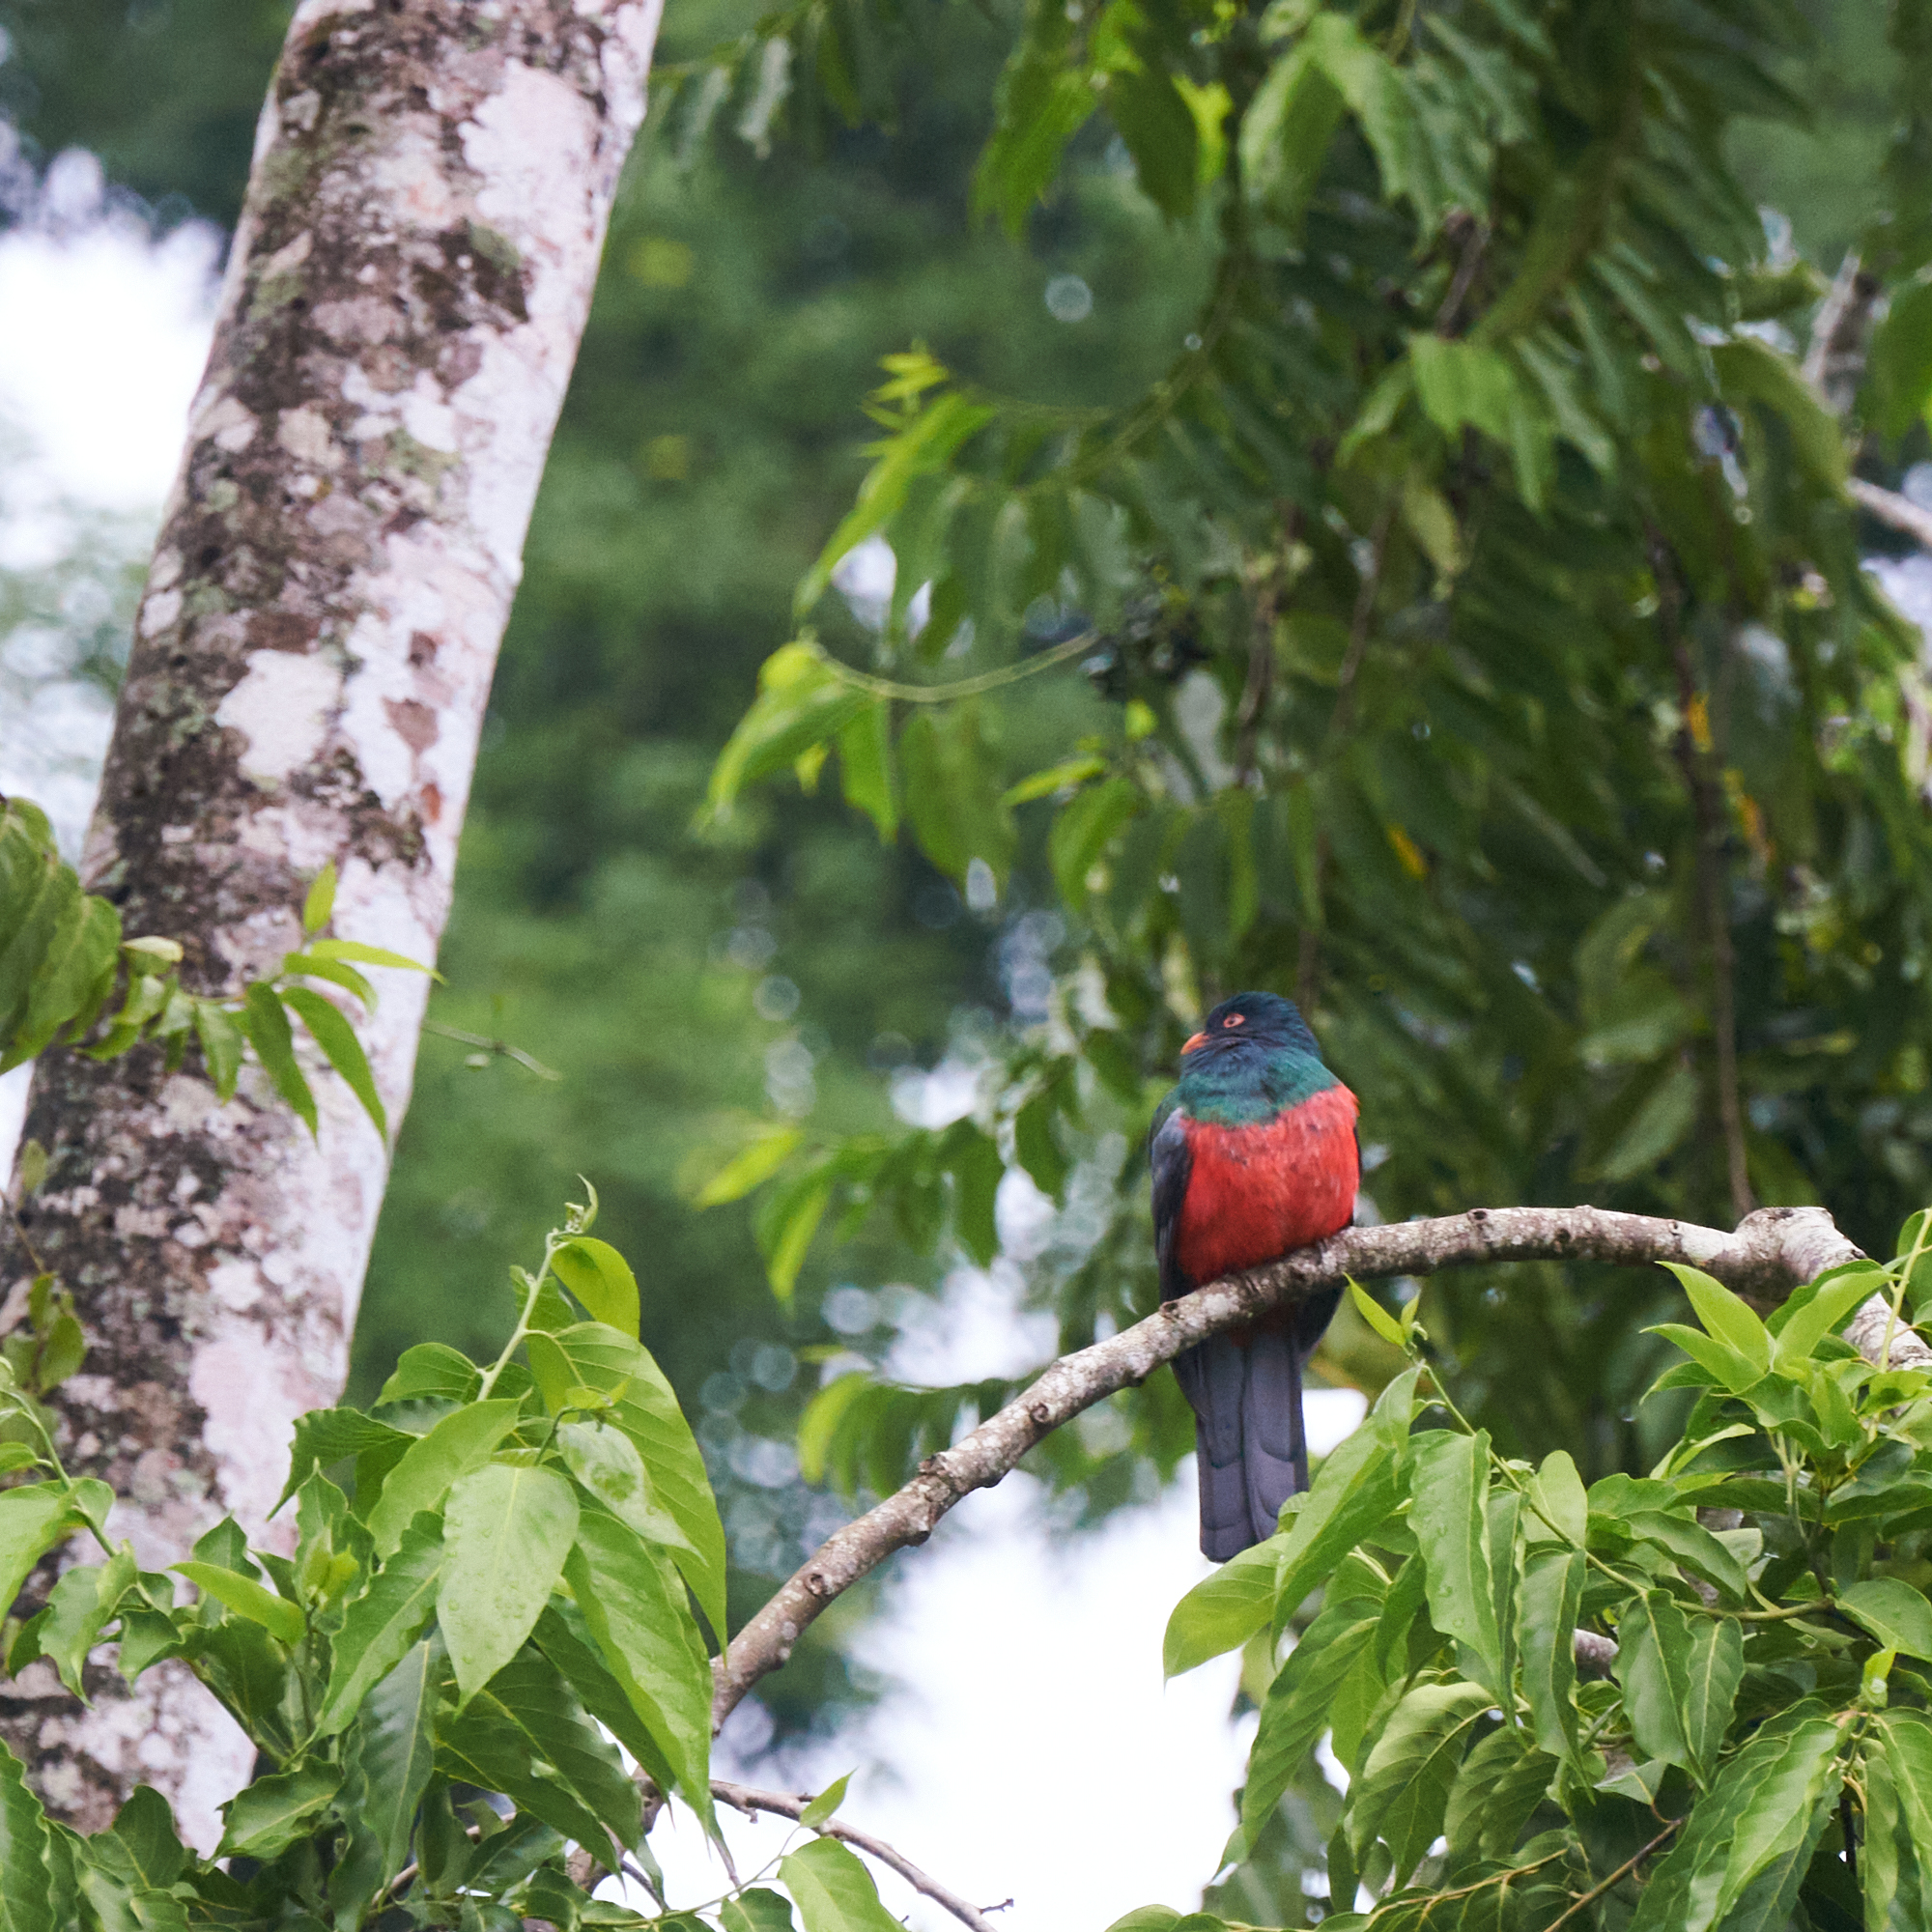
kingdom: Animalia
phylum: Chordata
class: Aves
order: Trogoniformes
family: Trogonidae
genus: Trogon
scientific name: Trogon massena
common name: Slaty-tailed trogon
